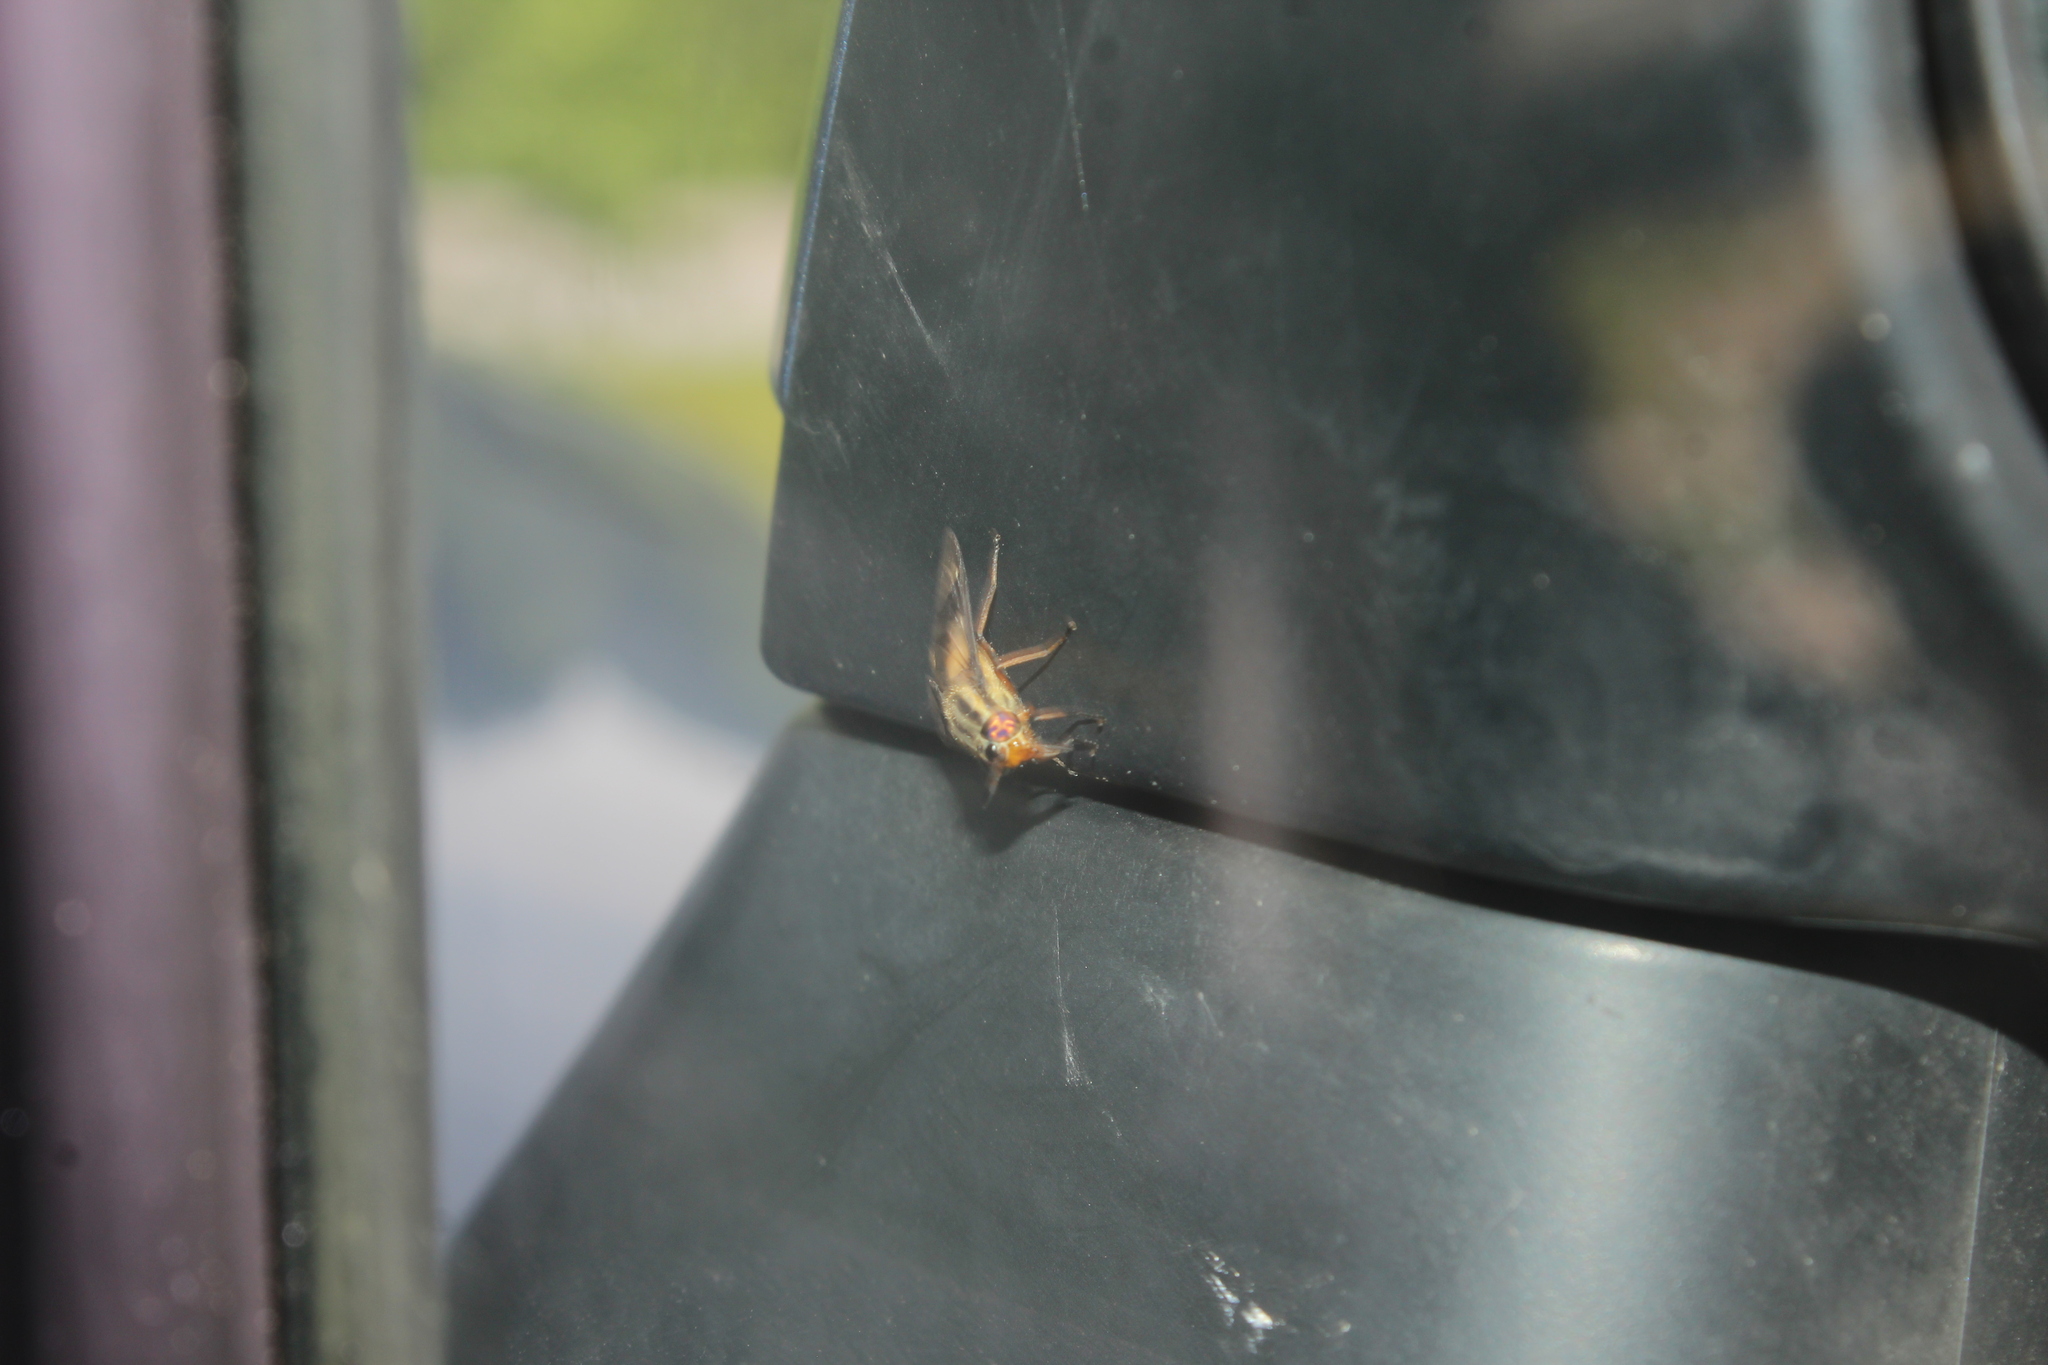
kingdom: Animalia
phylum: Arthropoda
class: Insecta
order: Diptera
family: Tabanidae
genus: Chrysops
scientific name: Chrysops vittatus
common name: Striped deer fly
